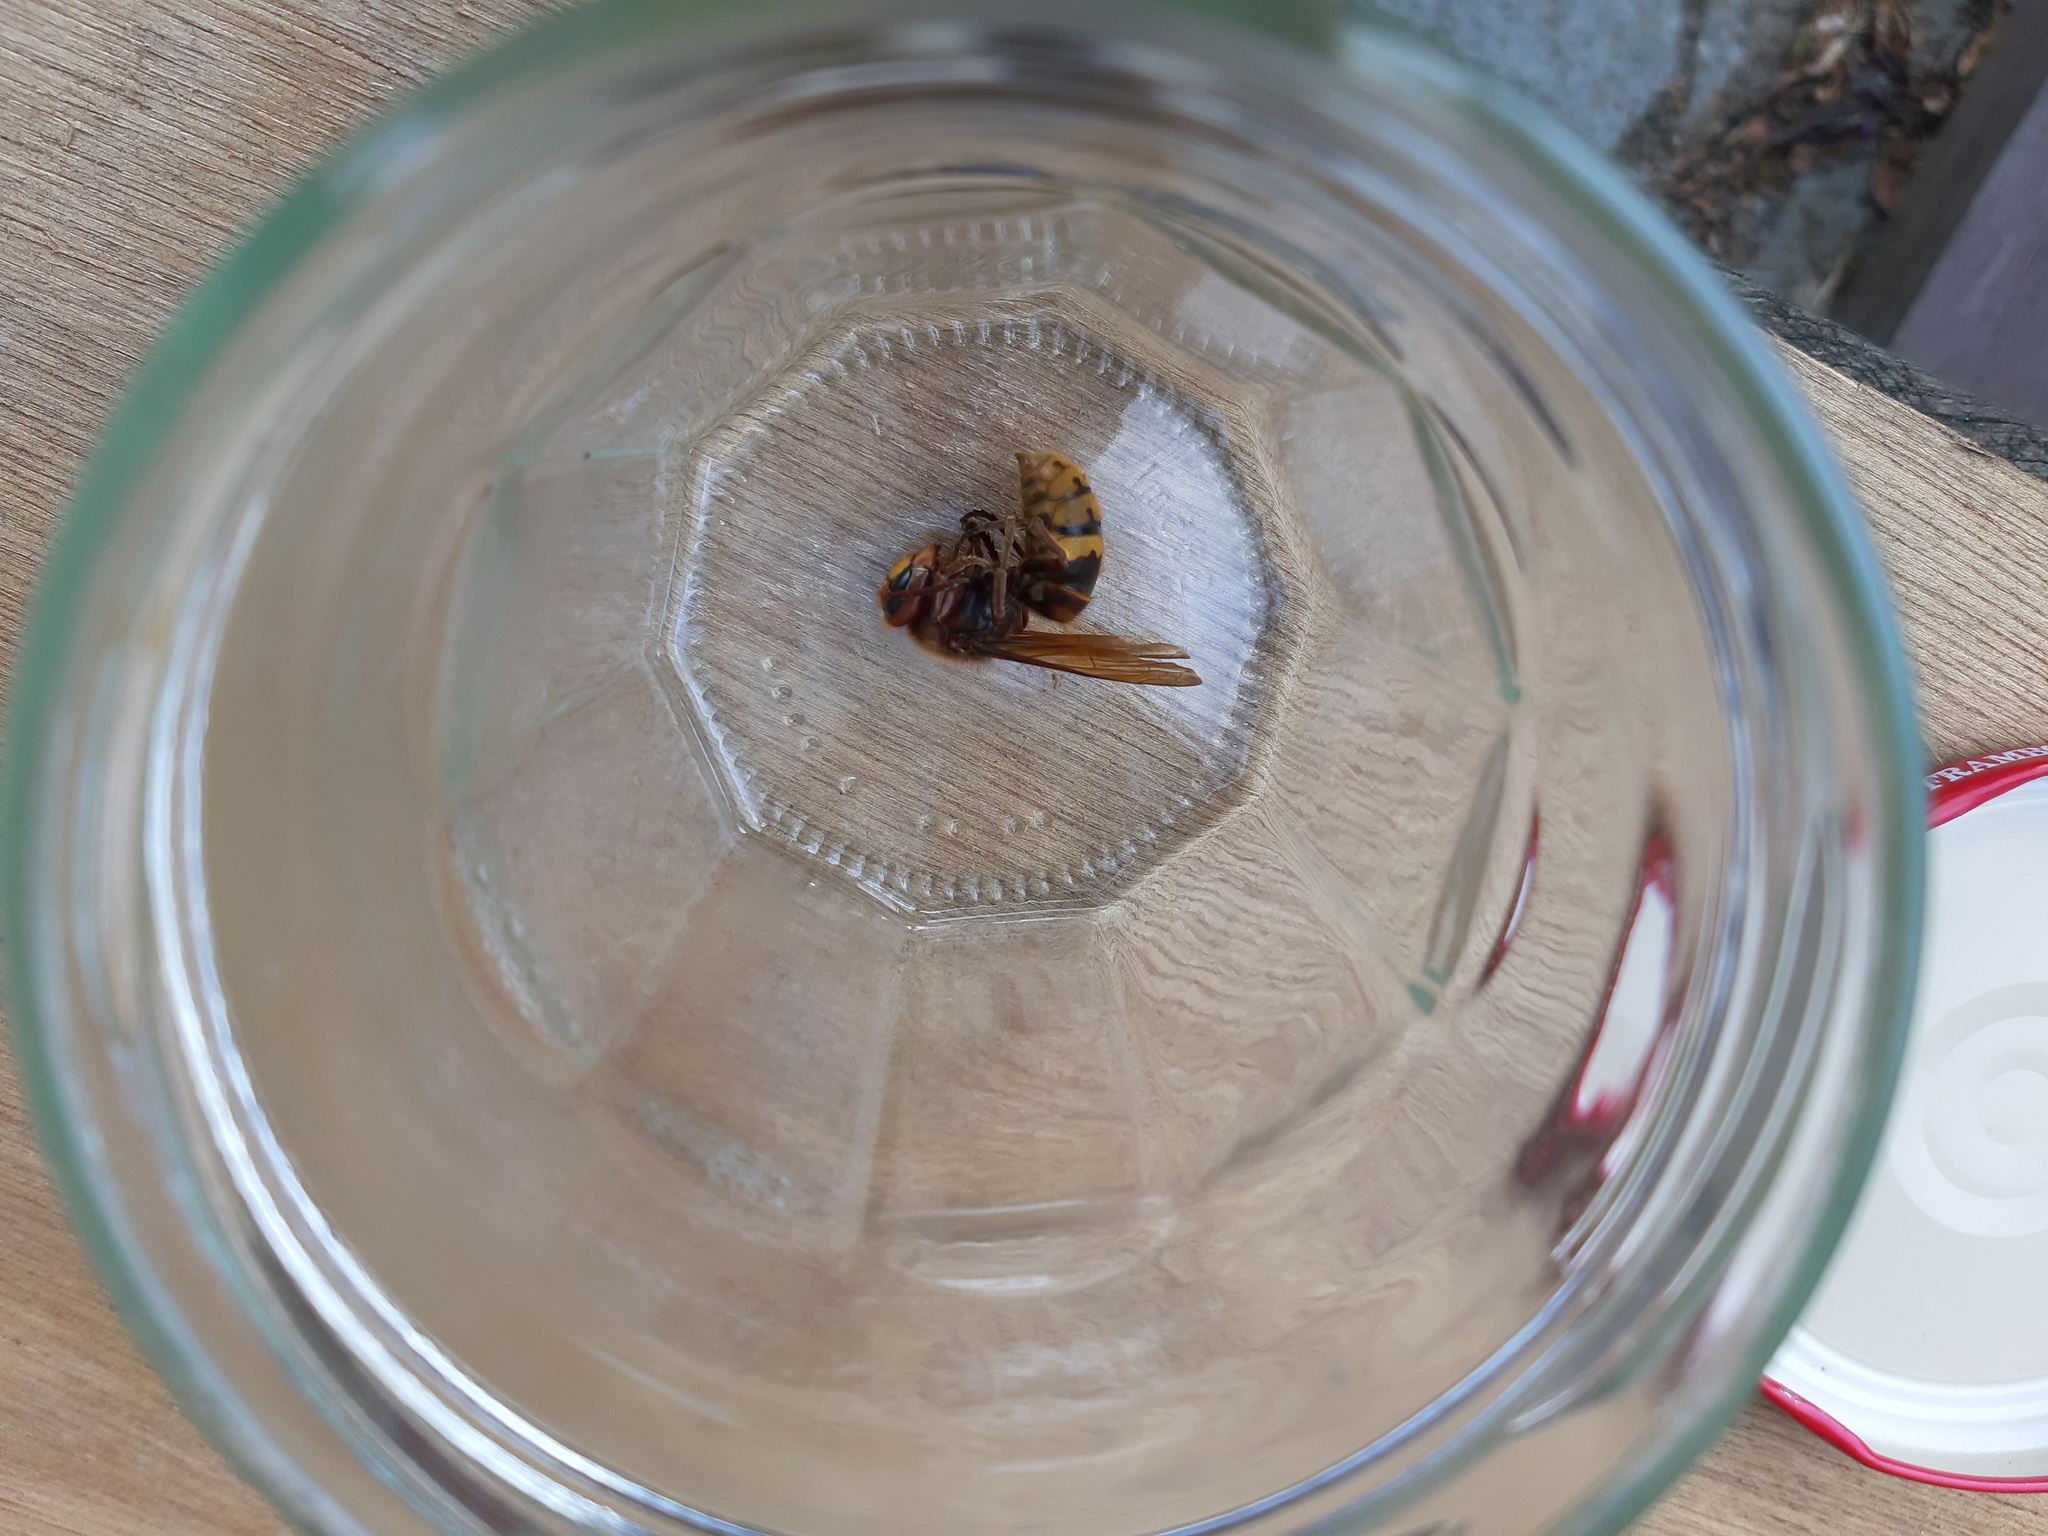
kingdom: Animalia
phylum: Arthropoda
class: Insecta
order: Hymenoptera
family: Vespidae
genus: Vespa
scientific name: Vespa crabro
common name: Hornet
